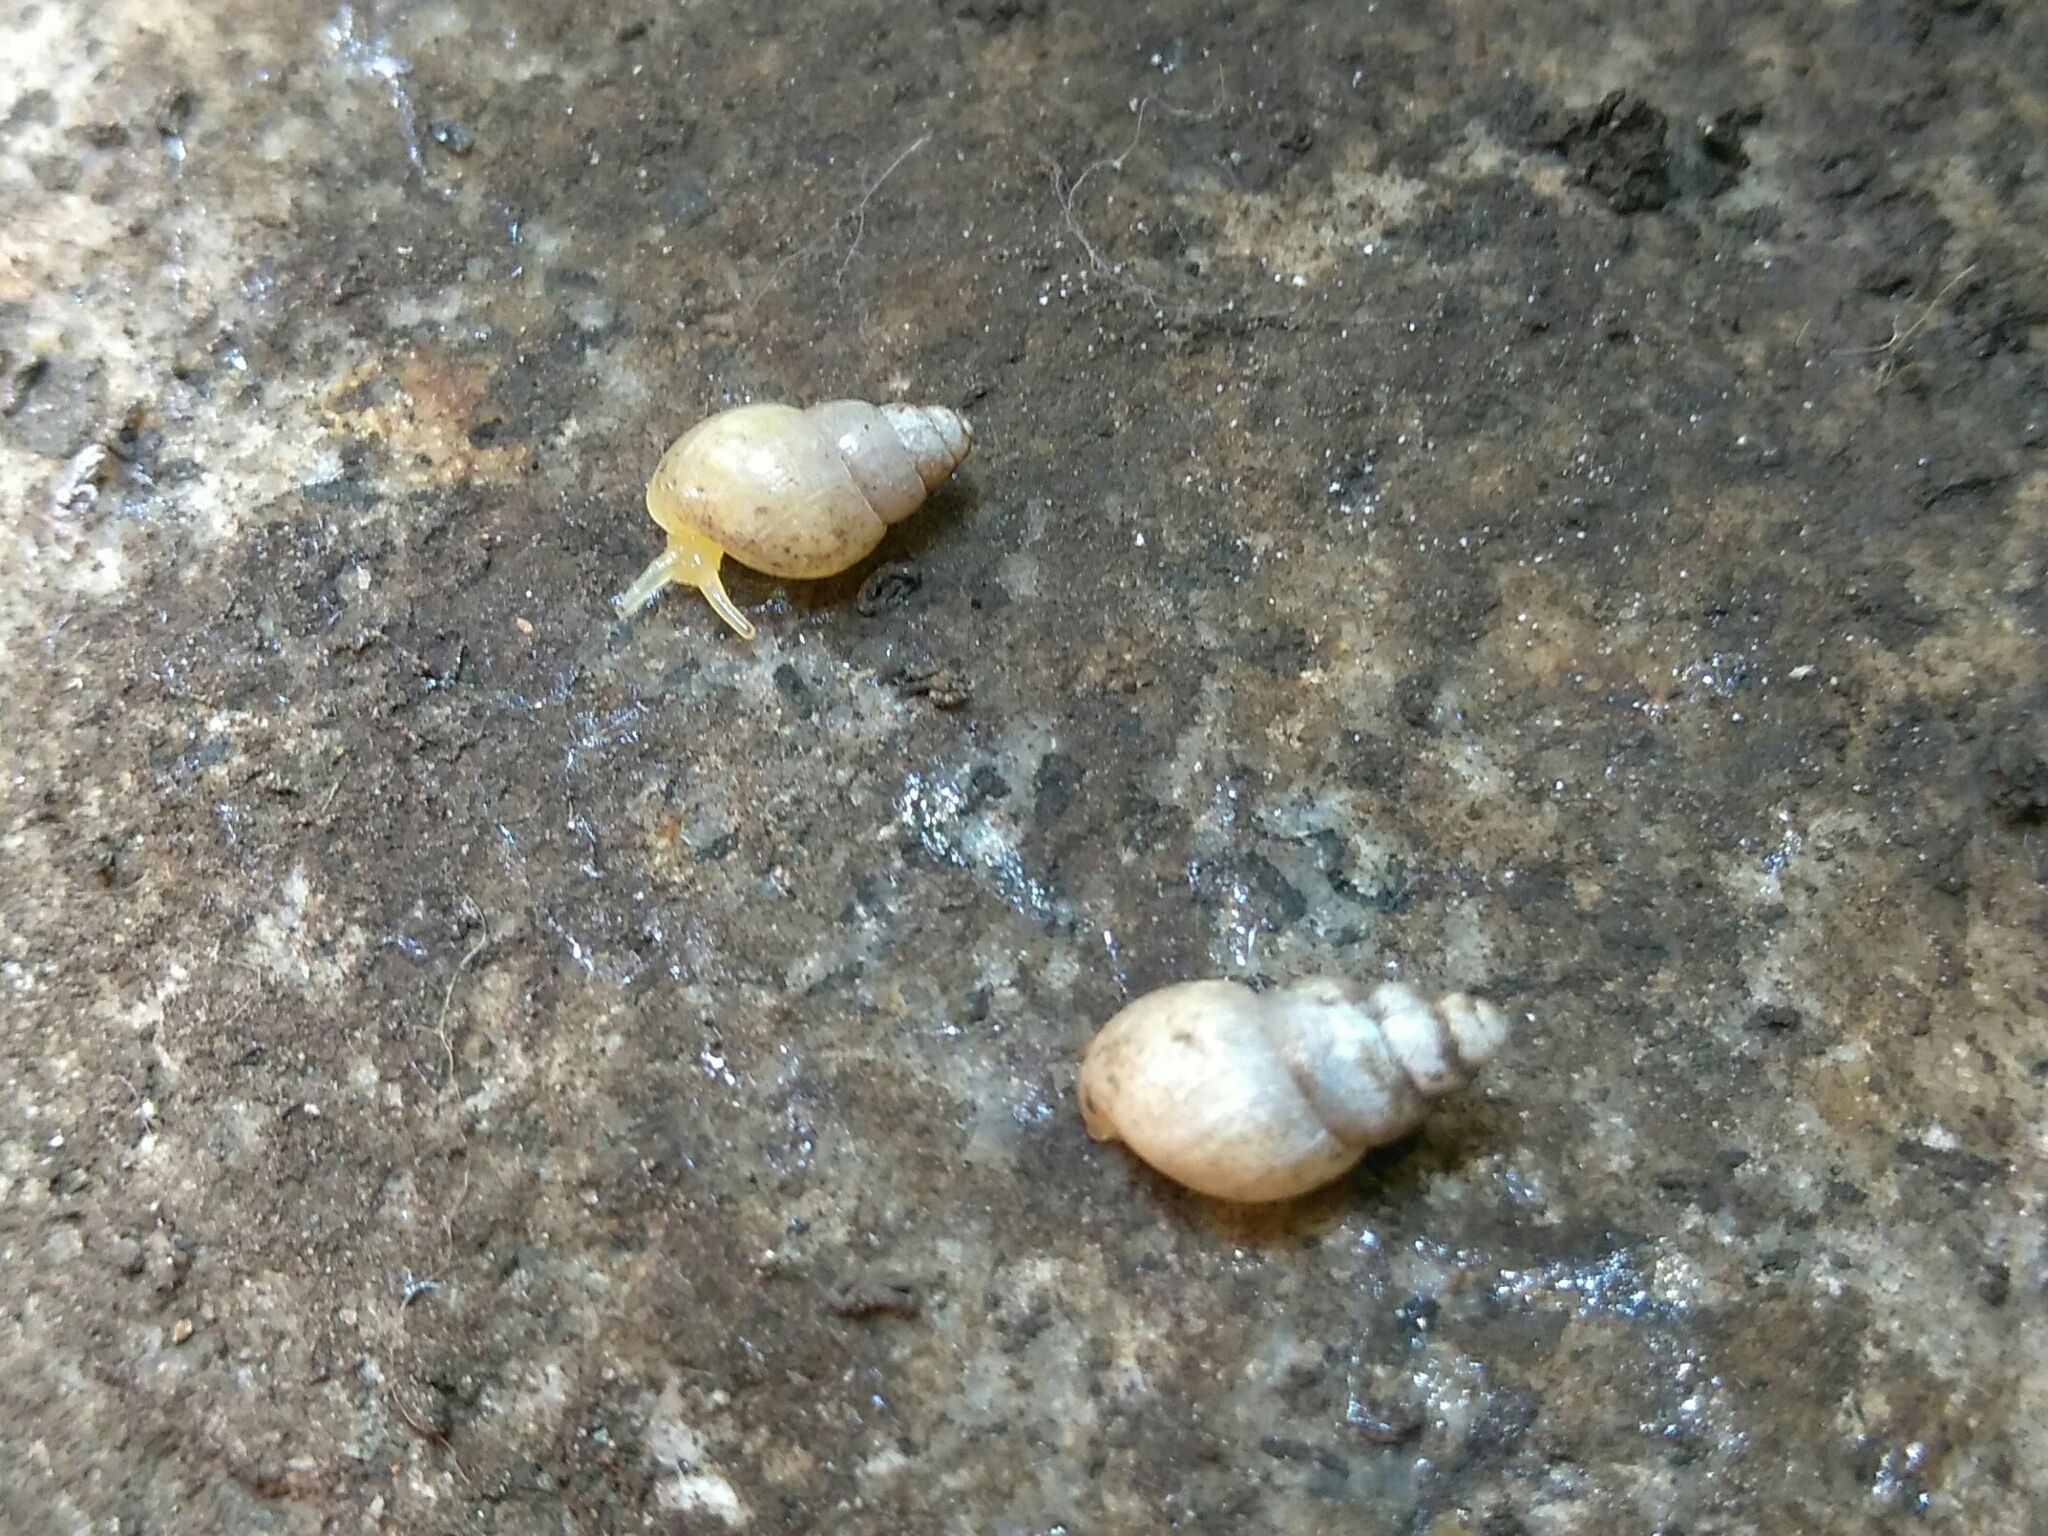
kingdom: Animalia
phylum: Mollusca
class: Gastropoda
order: Stylommatophora
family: Achatinidae
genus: Leptinaria
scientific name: Leptinaria unilamellata
